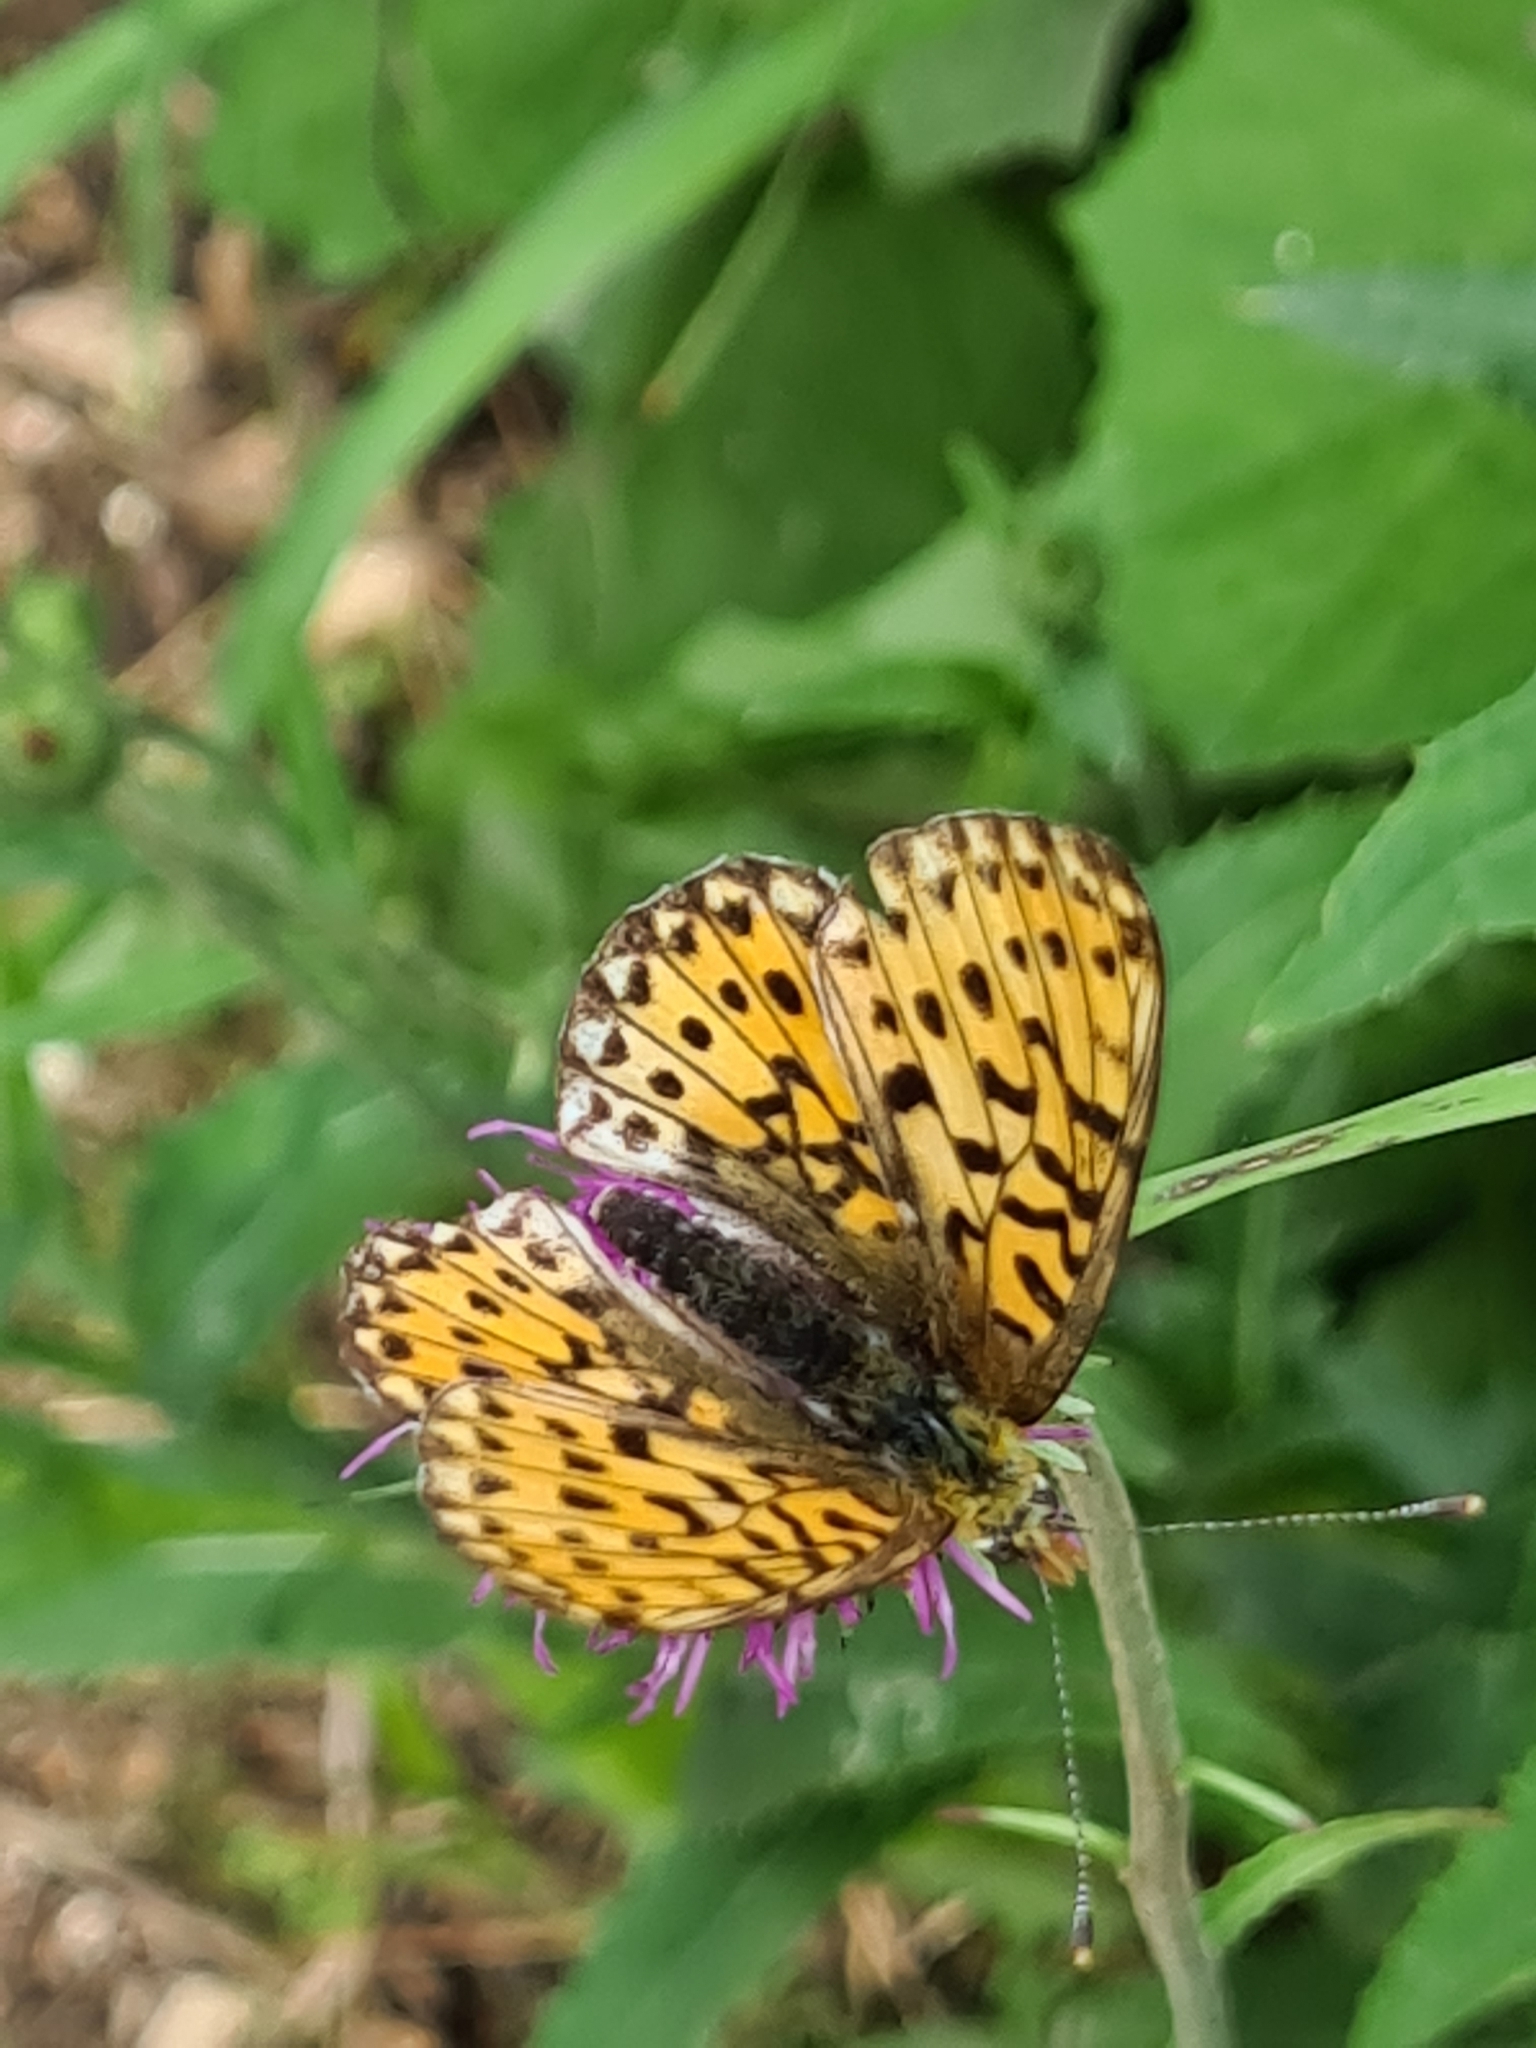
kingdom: Animalia
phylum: Arthropoda
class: Insecta
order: Lepidoptera
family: Nymphalidae
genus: Clossiana
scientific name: Clossiana euphrosyne
